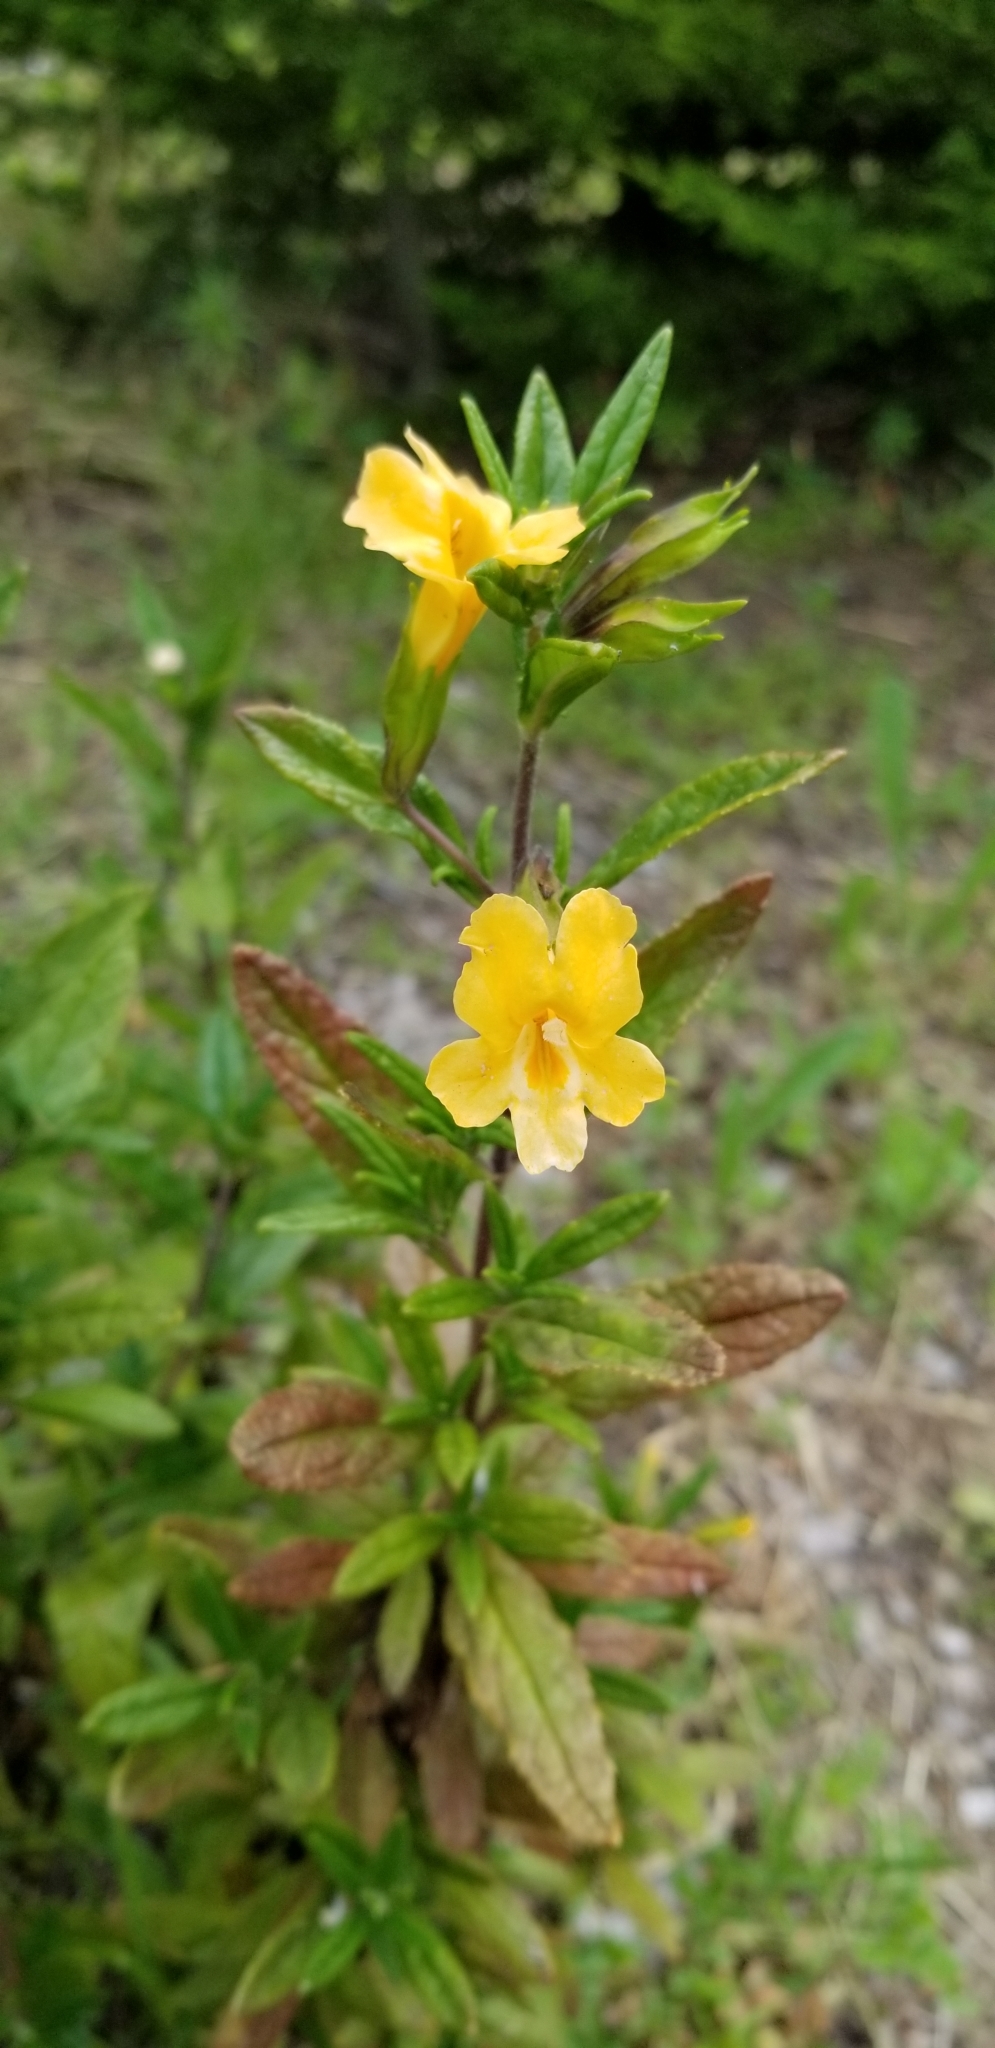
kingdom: Plantae
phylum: Tracheophyta
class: Magnoliopsida
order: Lamiales
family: Phrymaceae
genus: Diplacus
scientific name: Diplacus aurantiacus
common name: Bush monkey-flower
